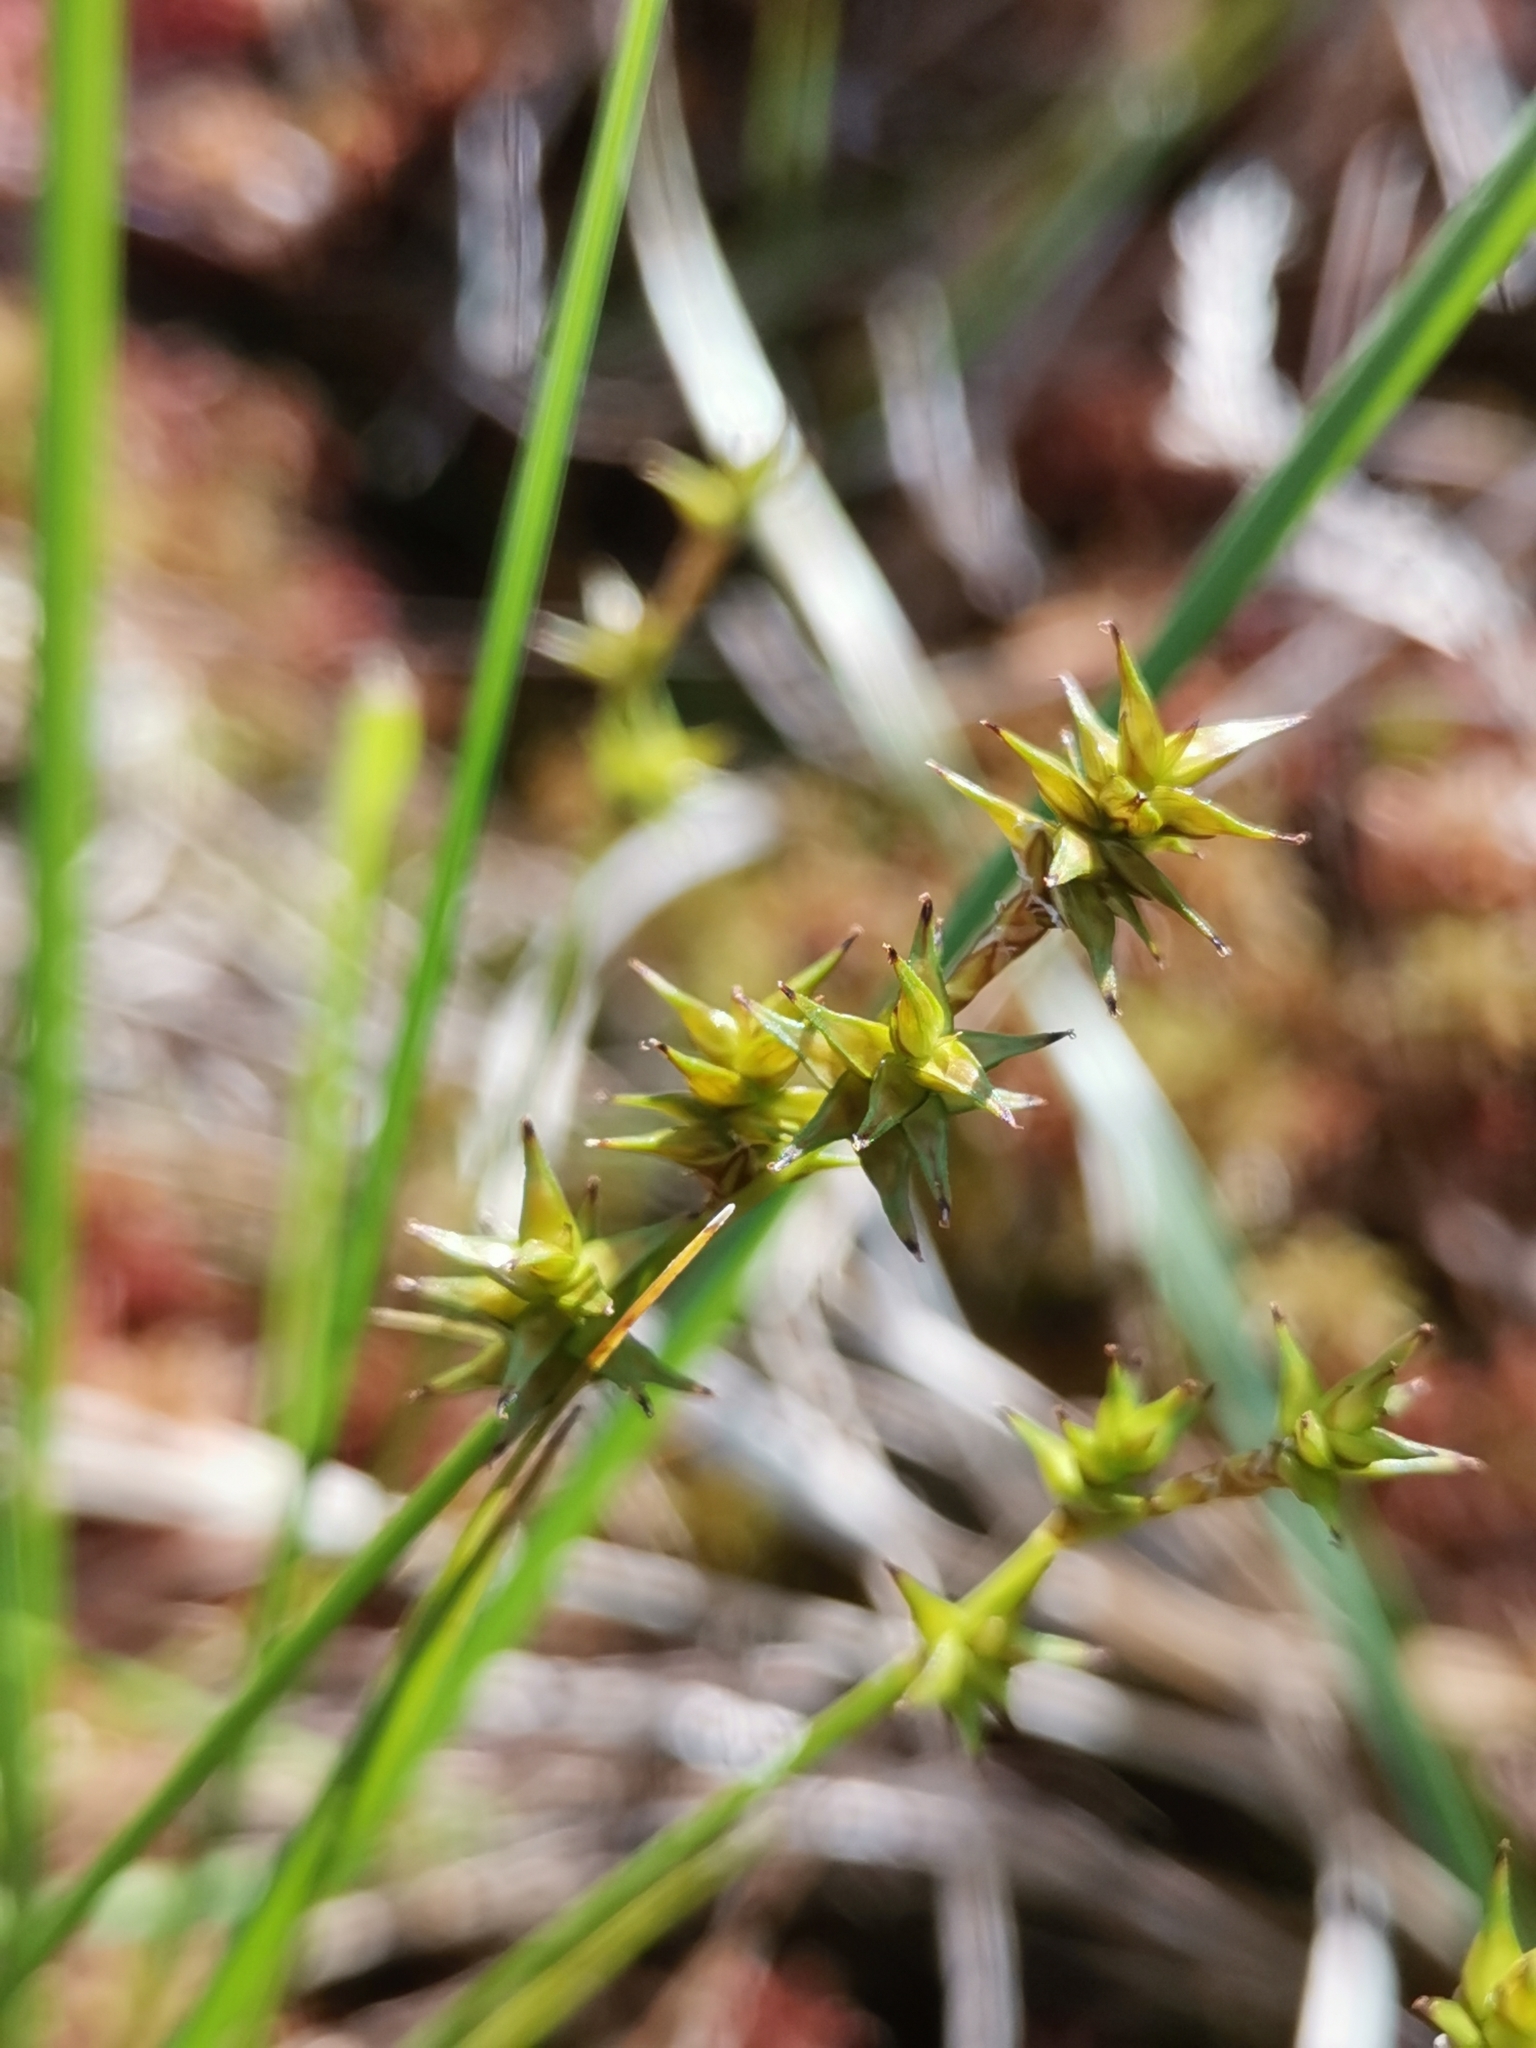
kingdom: Plantae
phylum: Tracheophyta
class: Liliopsida
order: Poales
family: Cyperaceae
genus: Carex
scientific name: Carex echinata
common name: Star sedge
